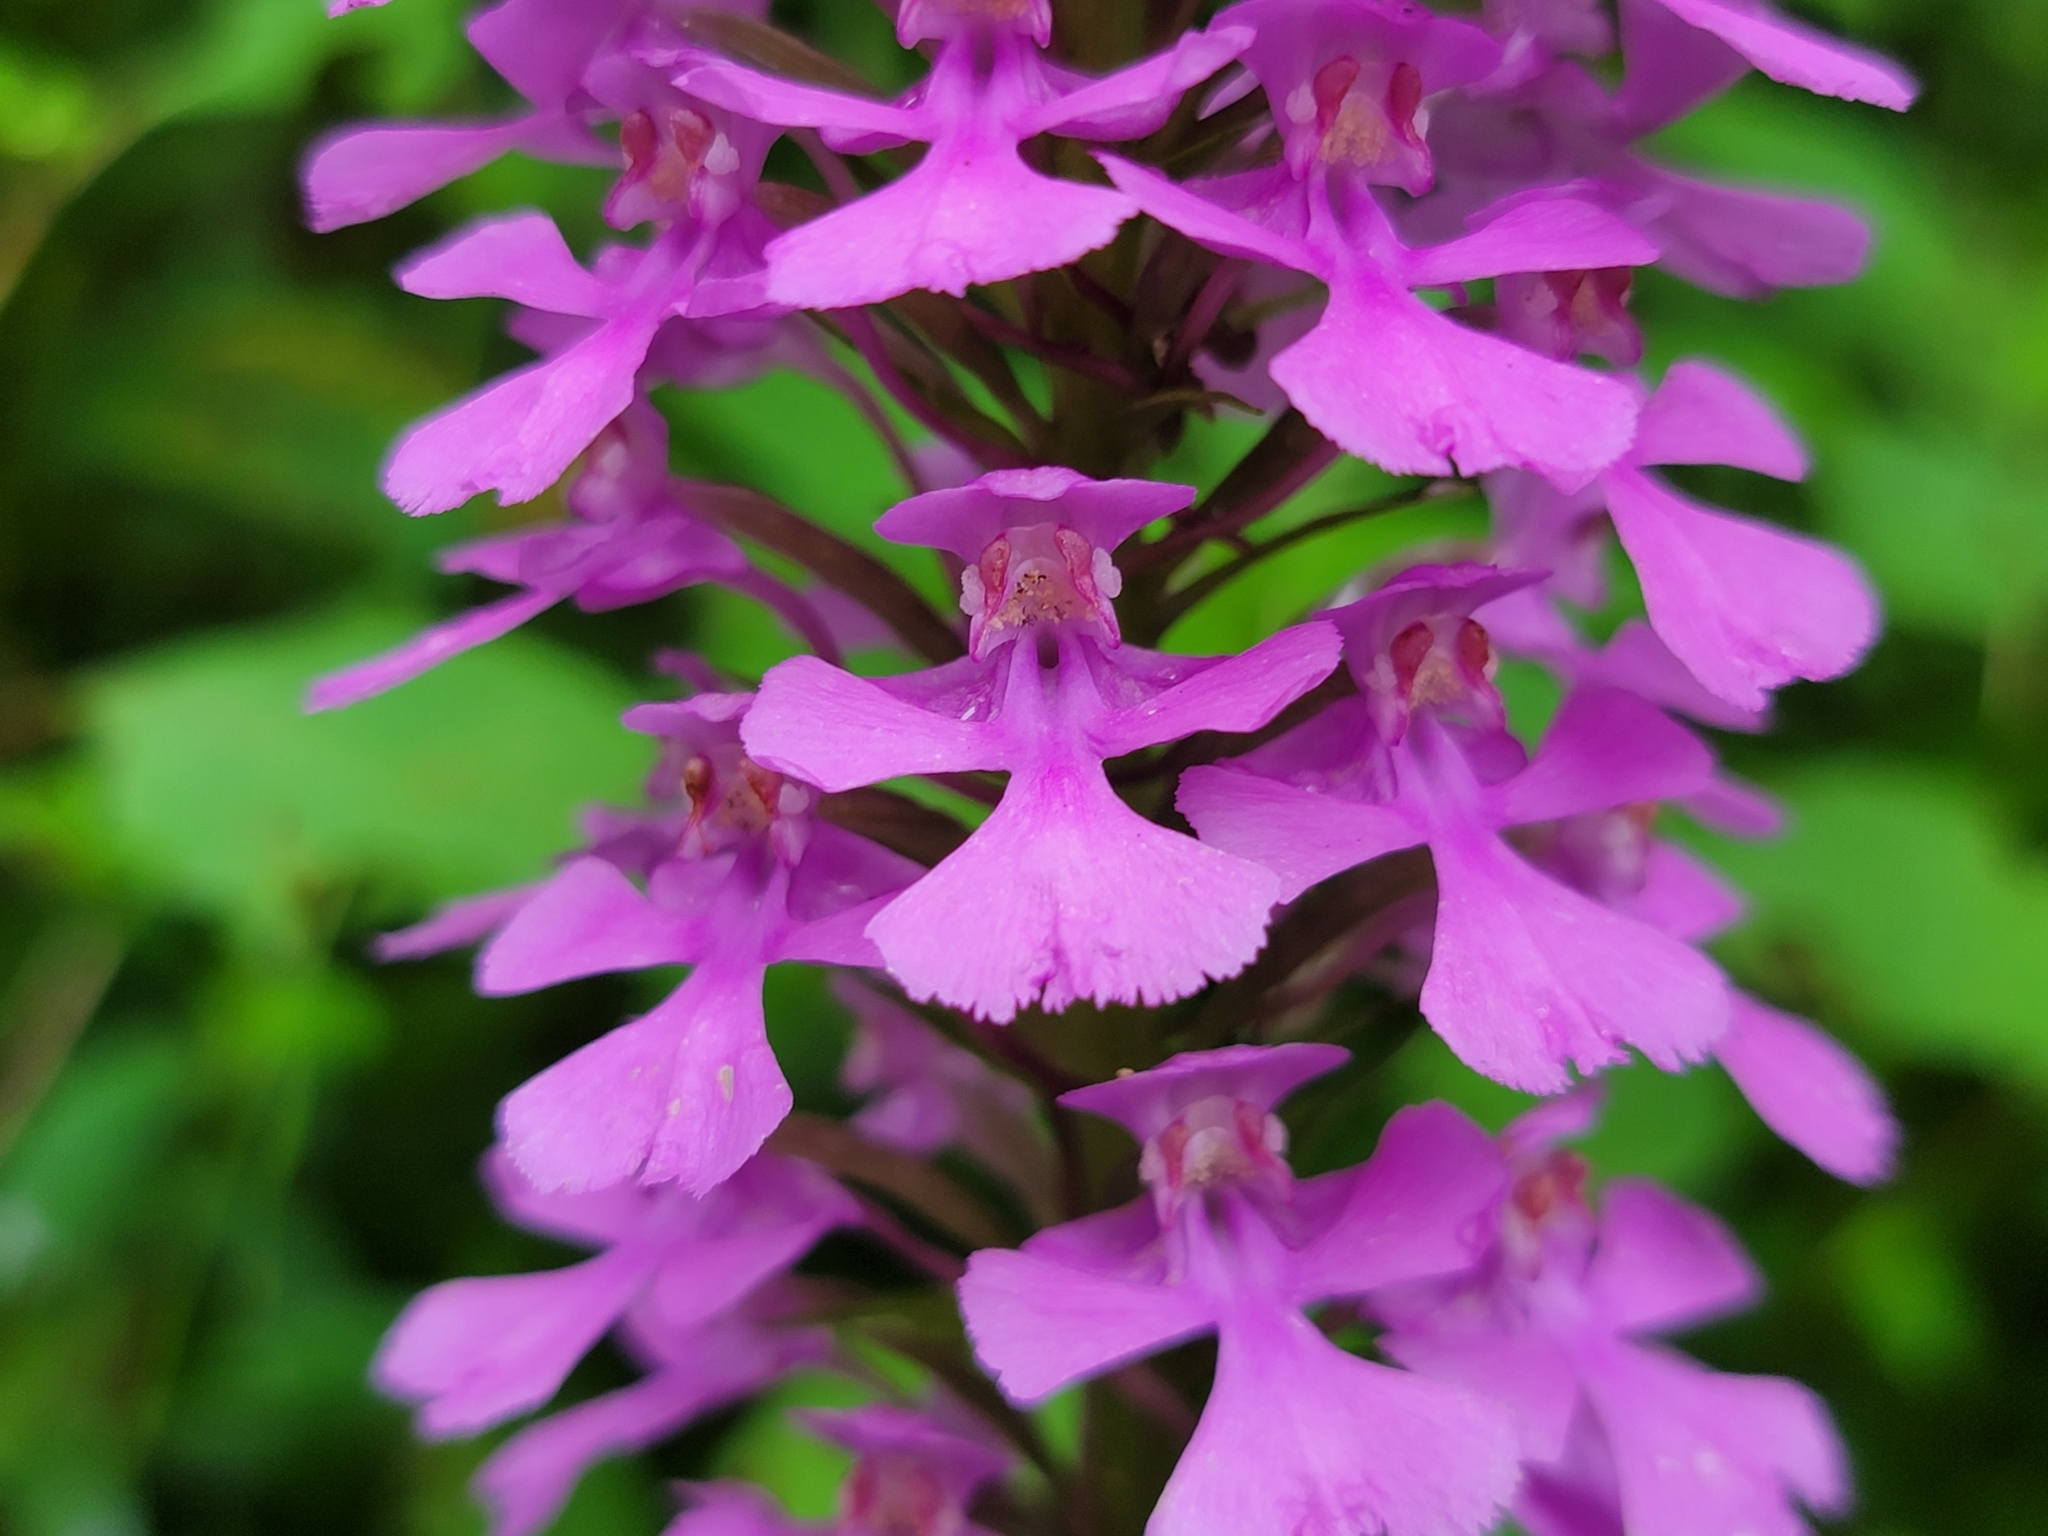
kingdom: Plantae
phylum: Tracheophyta
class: Liliopsida
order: Asparagales
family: Orchidaceae
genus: Platanthera
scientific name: Platanthera peramoena
